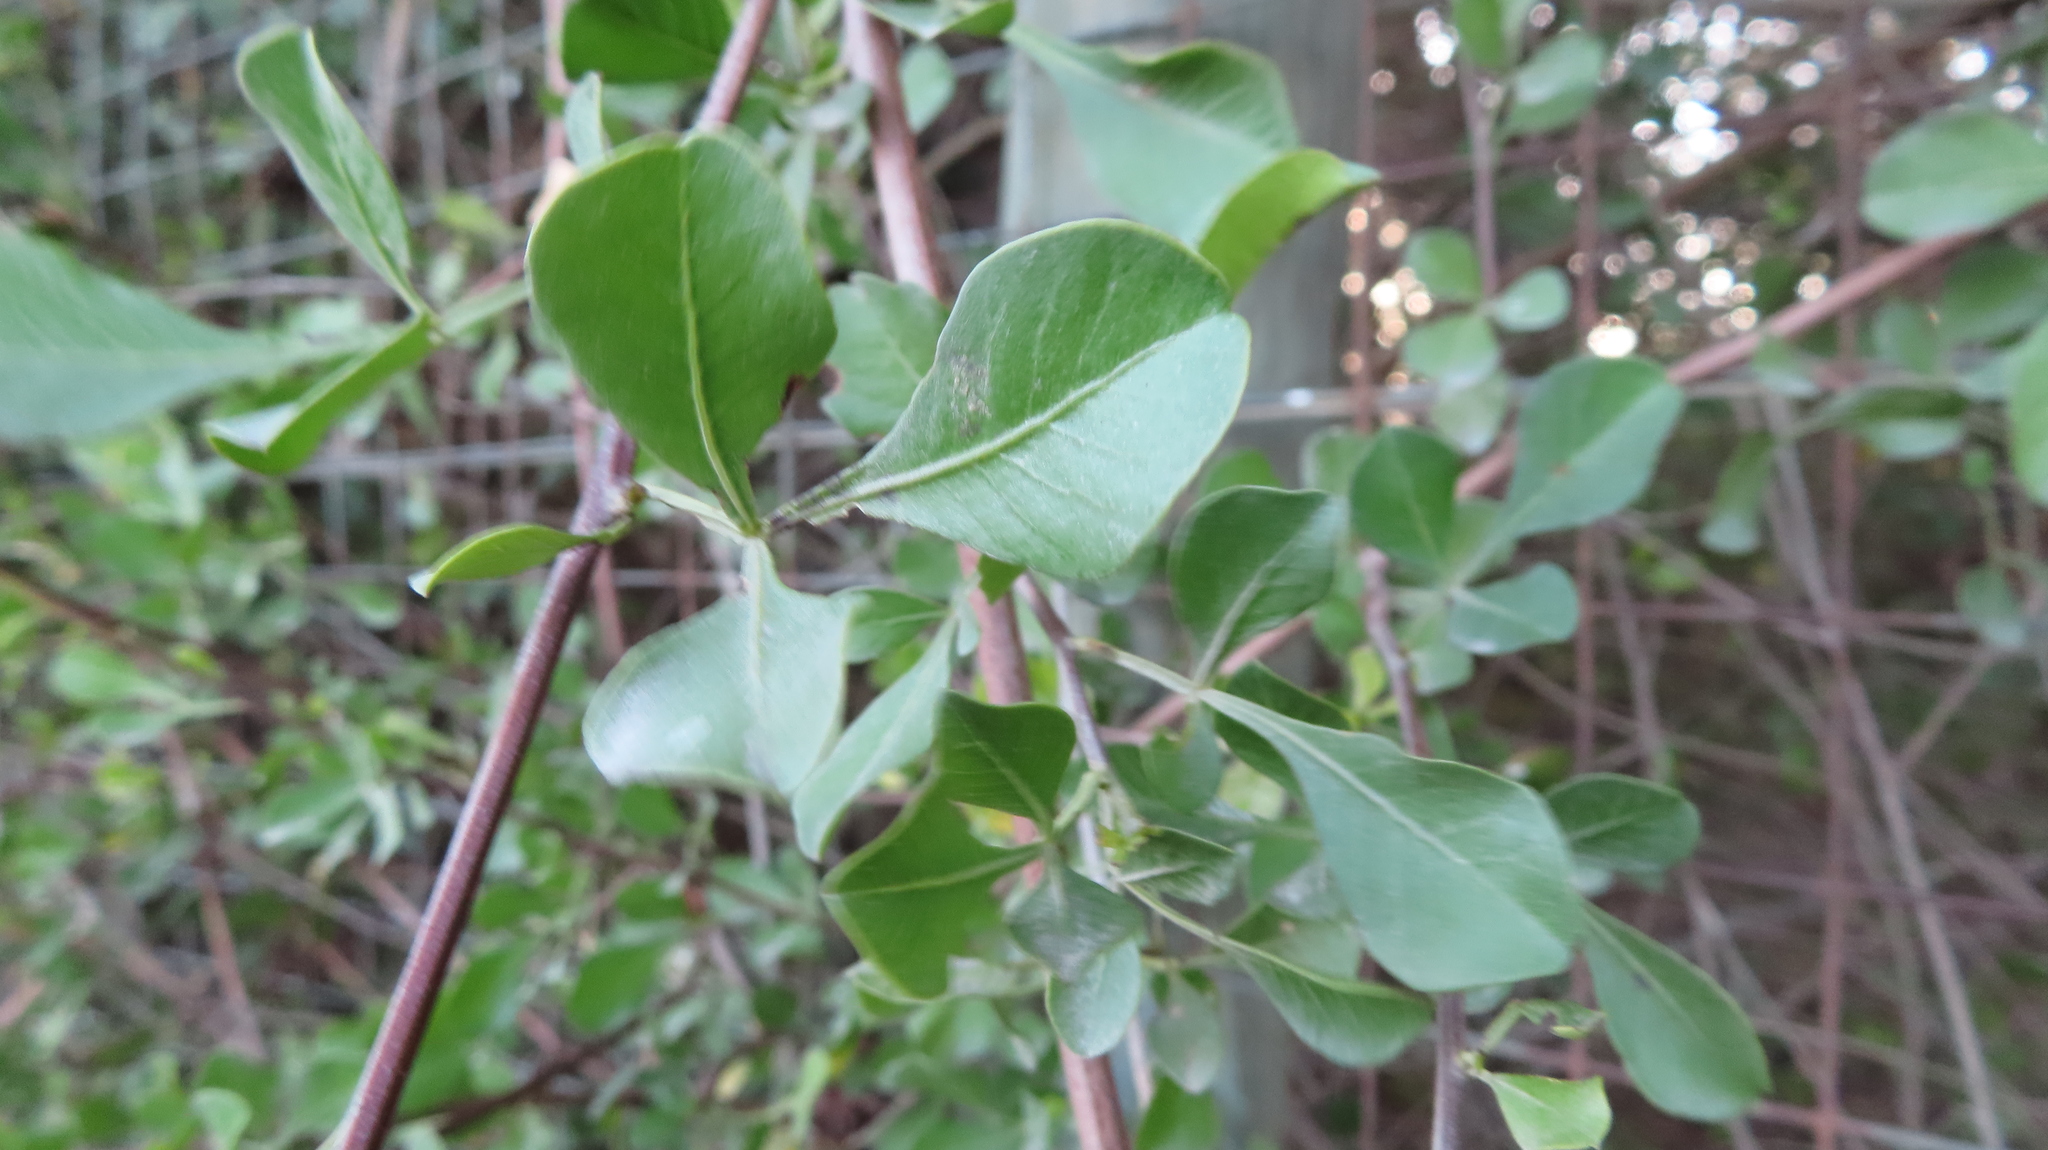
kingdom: Plantae
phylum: Tracheophyta
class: Magnoliopsida
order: Sapindales
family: Anacardiaceae
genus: Searsia
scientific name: Searsia glauca
